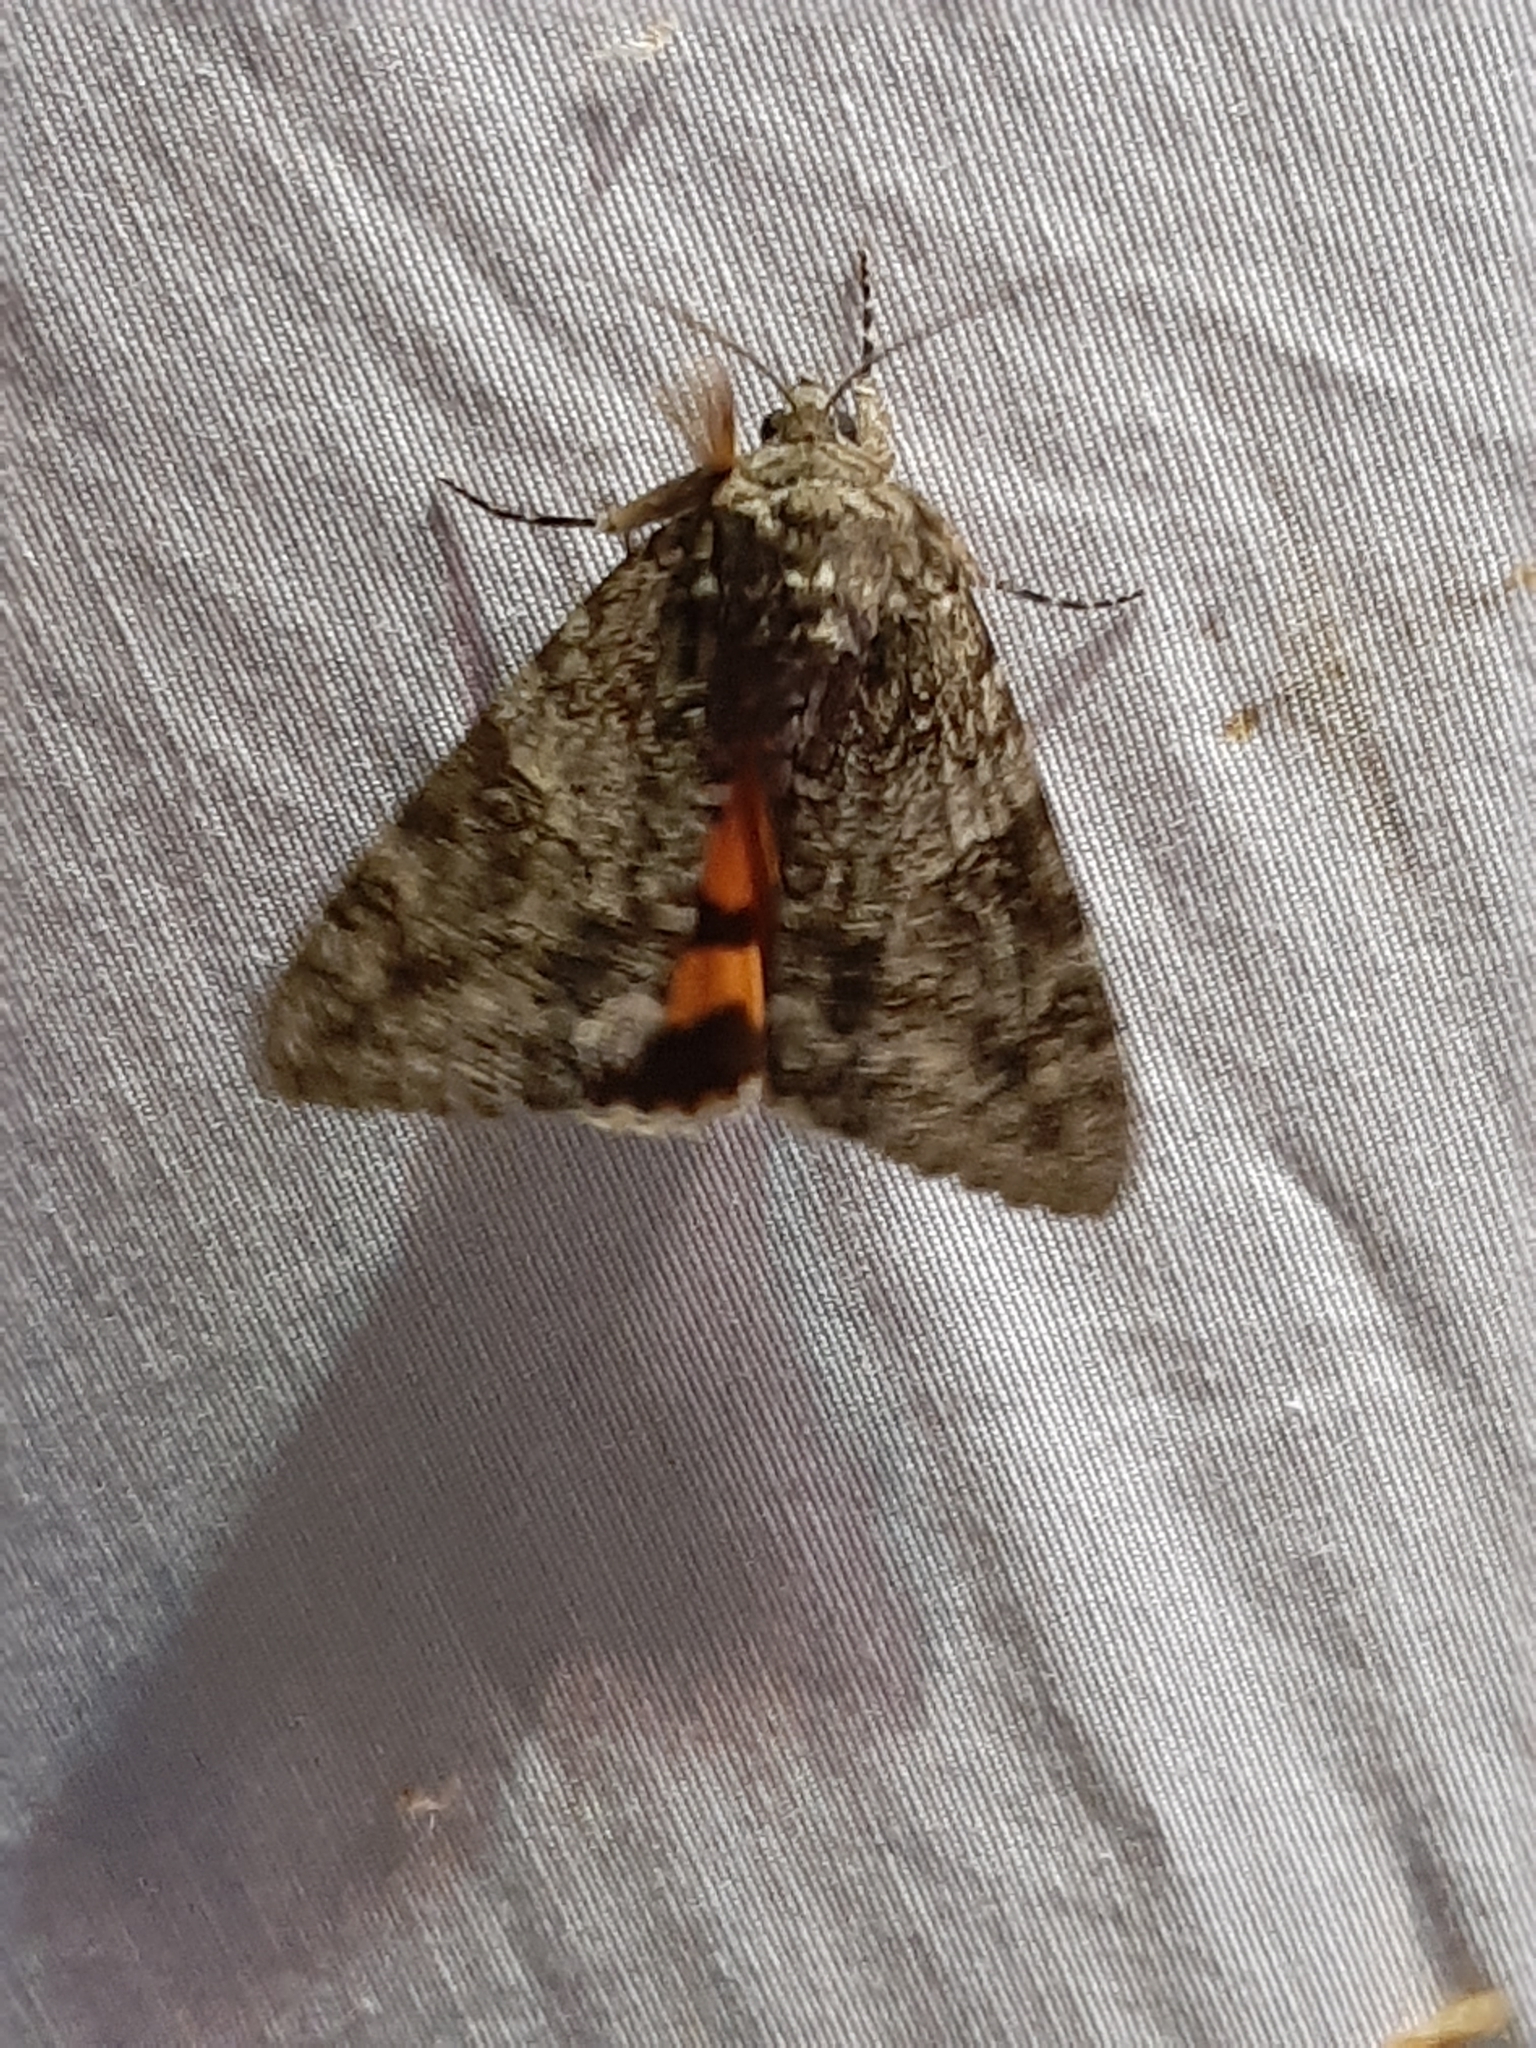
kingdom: Animalia
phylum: Arthropoda
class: Insecta
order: Lepidoptera
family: Erebidae
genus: Catocala
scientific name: Catocala unijuga
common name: Once-married underwing
